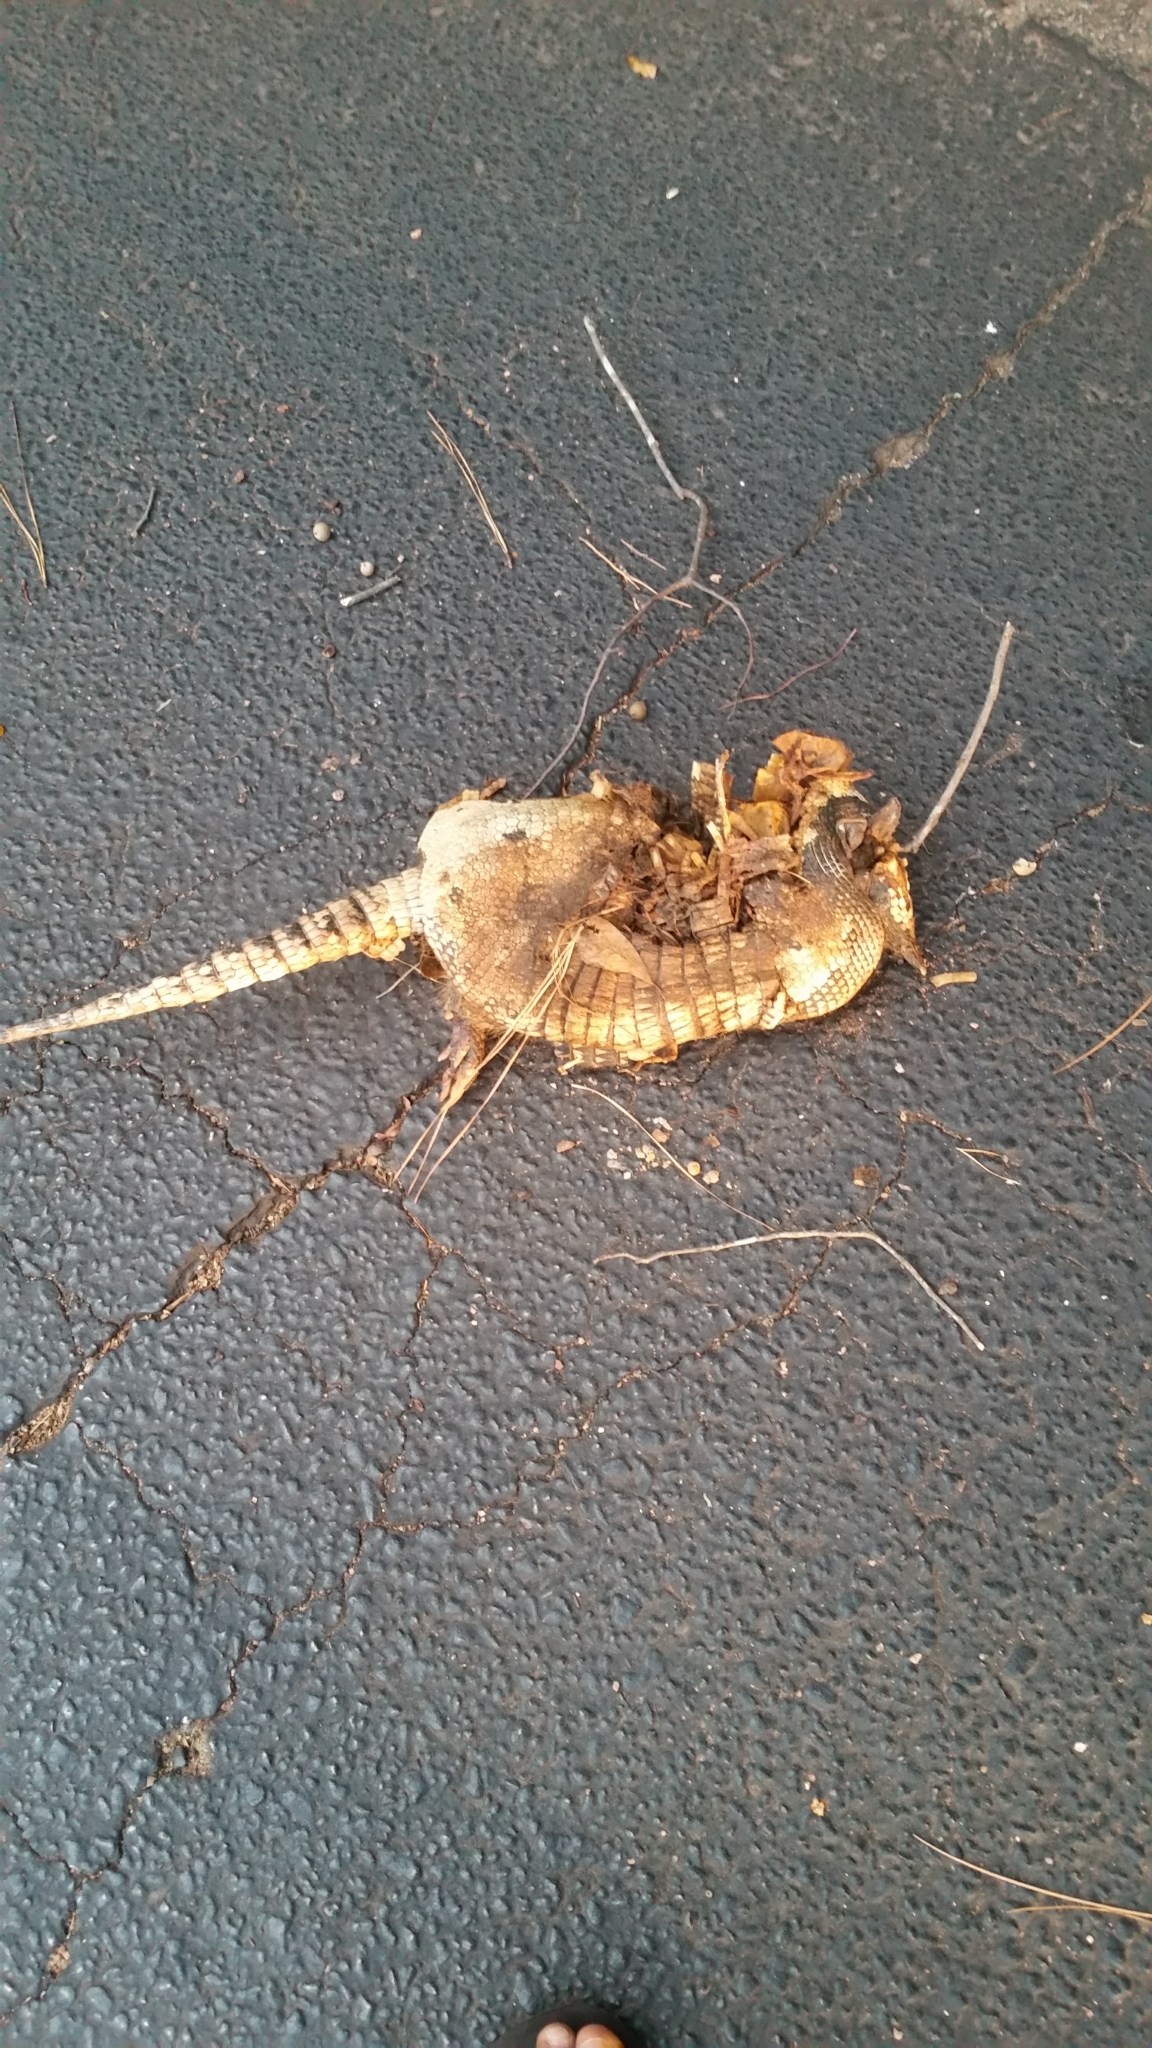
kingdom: Animalia
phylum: Chordata
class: Mammalia
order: Cingulata
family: Dasypodidae
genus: Dasypus
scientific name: Dasypus novemcinctus
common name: Nine-banded armadillo
